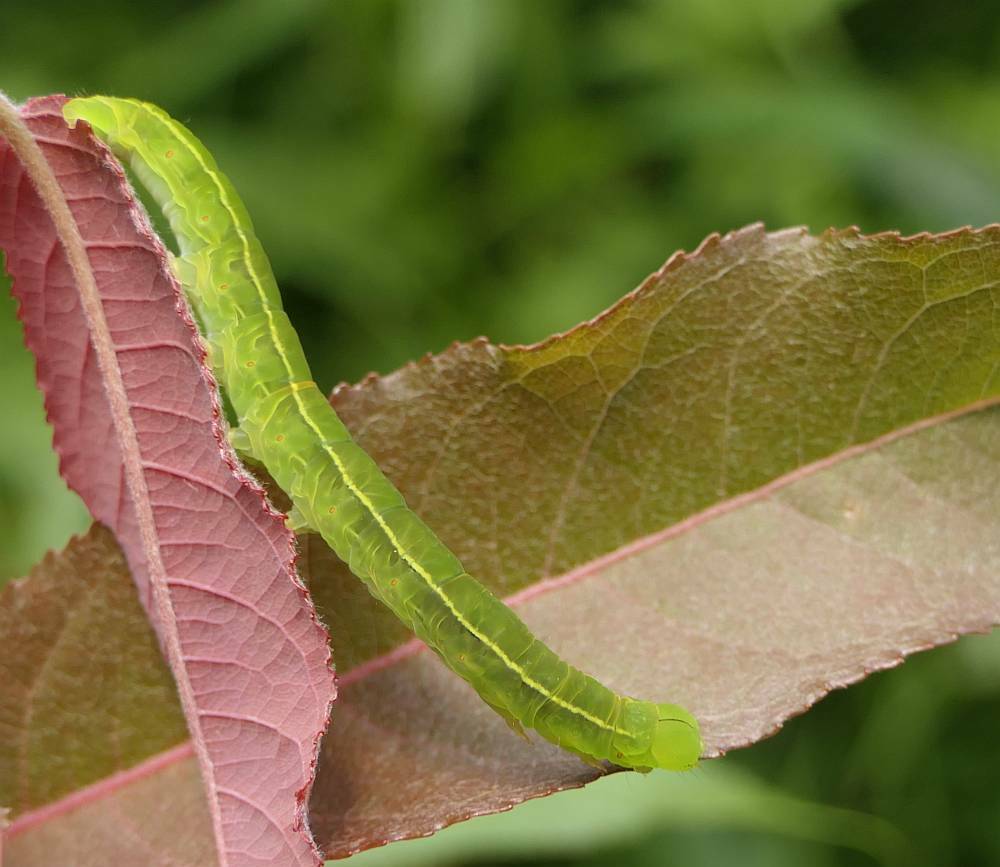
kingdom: Animalia
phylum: Arthropoda
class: Insecta
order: Lepidoptera
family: Erebidae
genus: Scoliopteryx
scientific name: Scoliopteryx libatrix
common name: Herald
